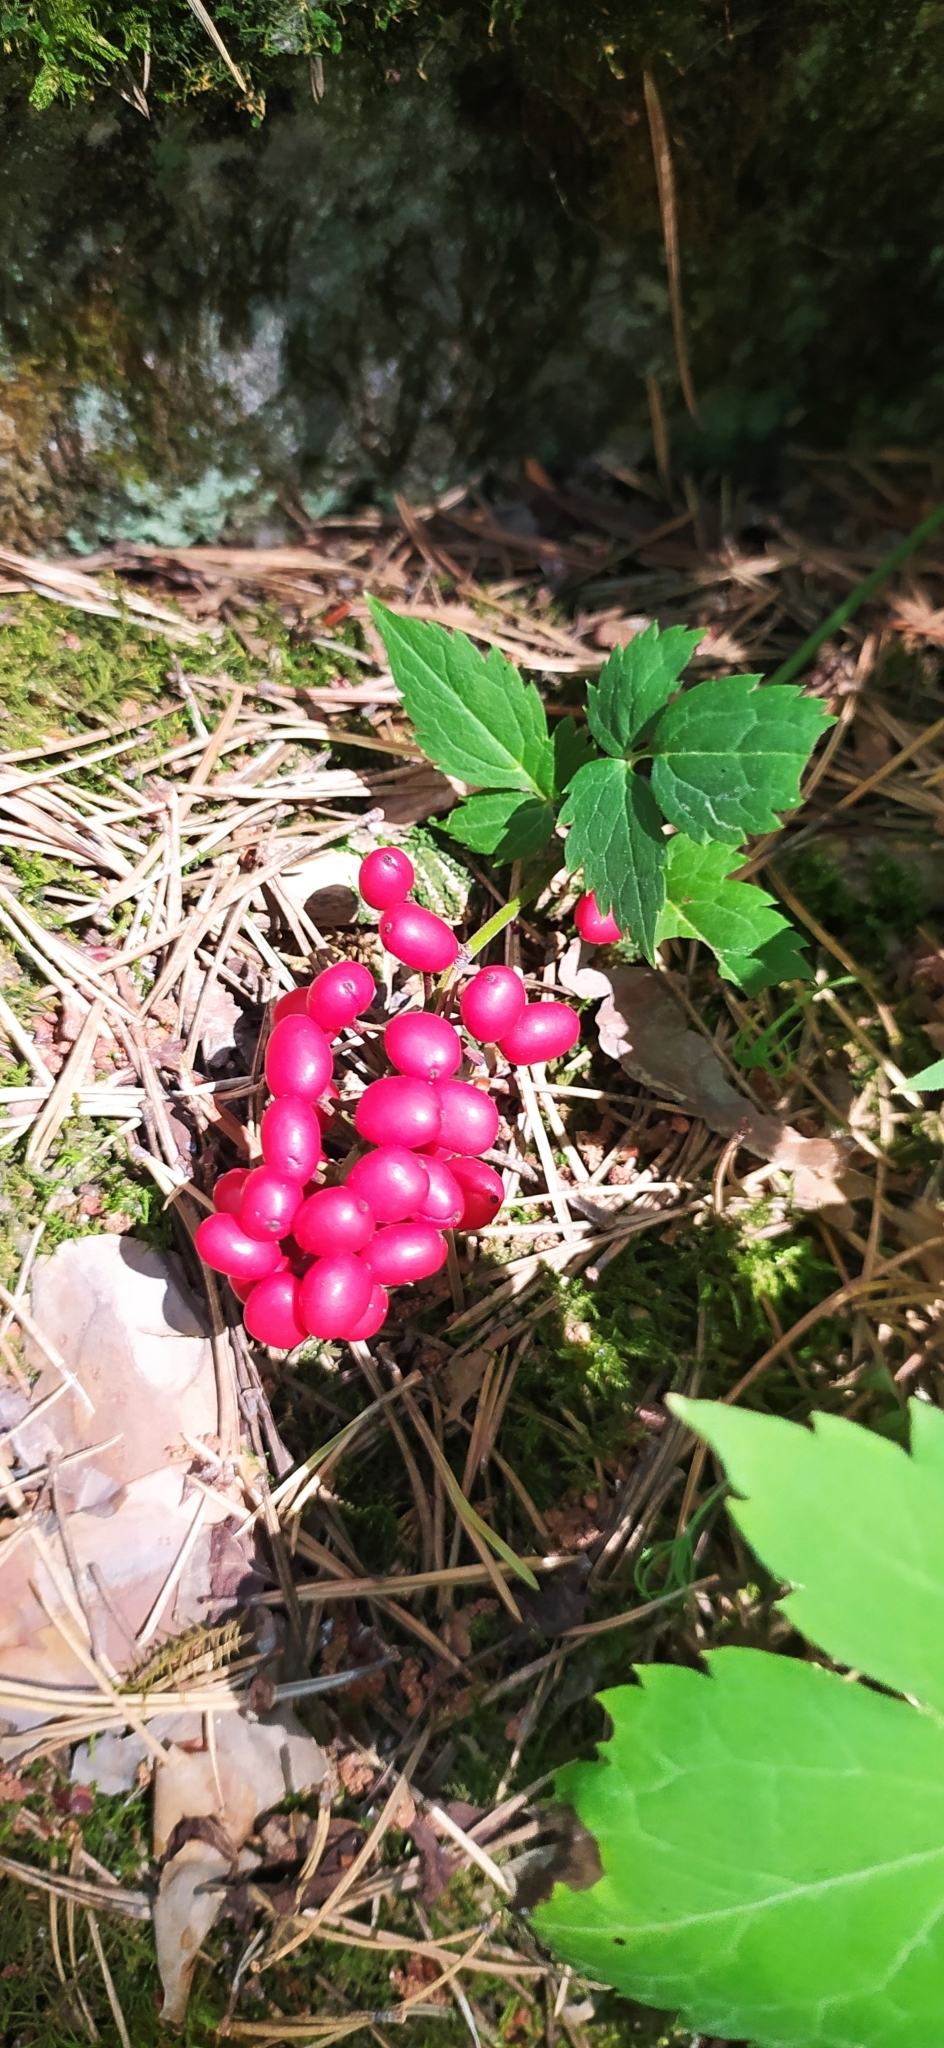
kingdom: Plantae
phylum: Tracheophyta
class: Magnoliopsida
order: Ranunculales
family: Ranunculaceae
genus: Actaea
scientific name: Actaea erythrocarpa
